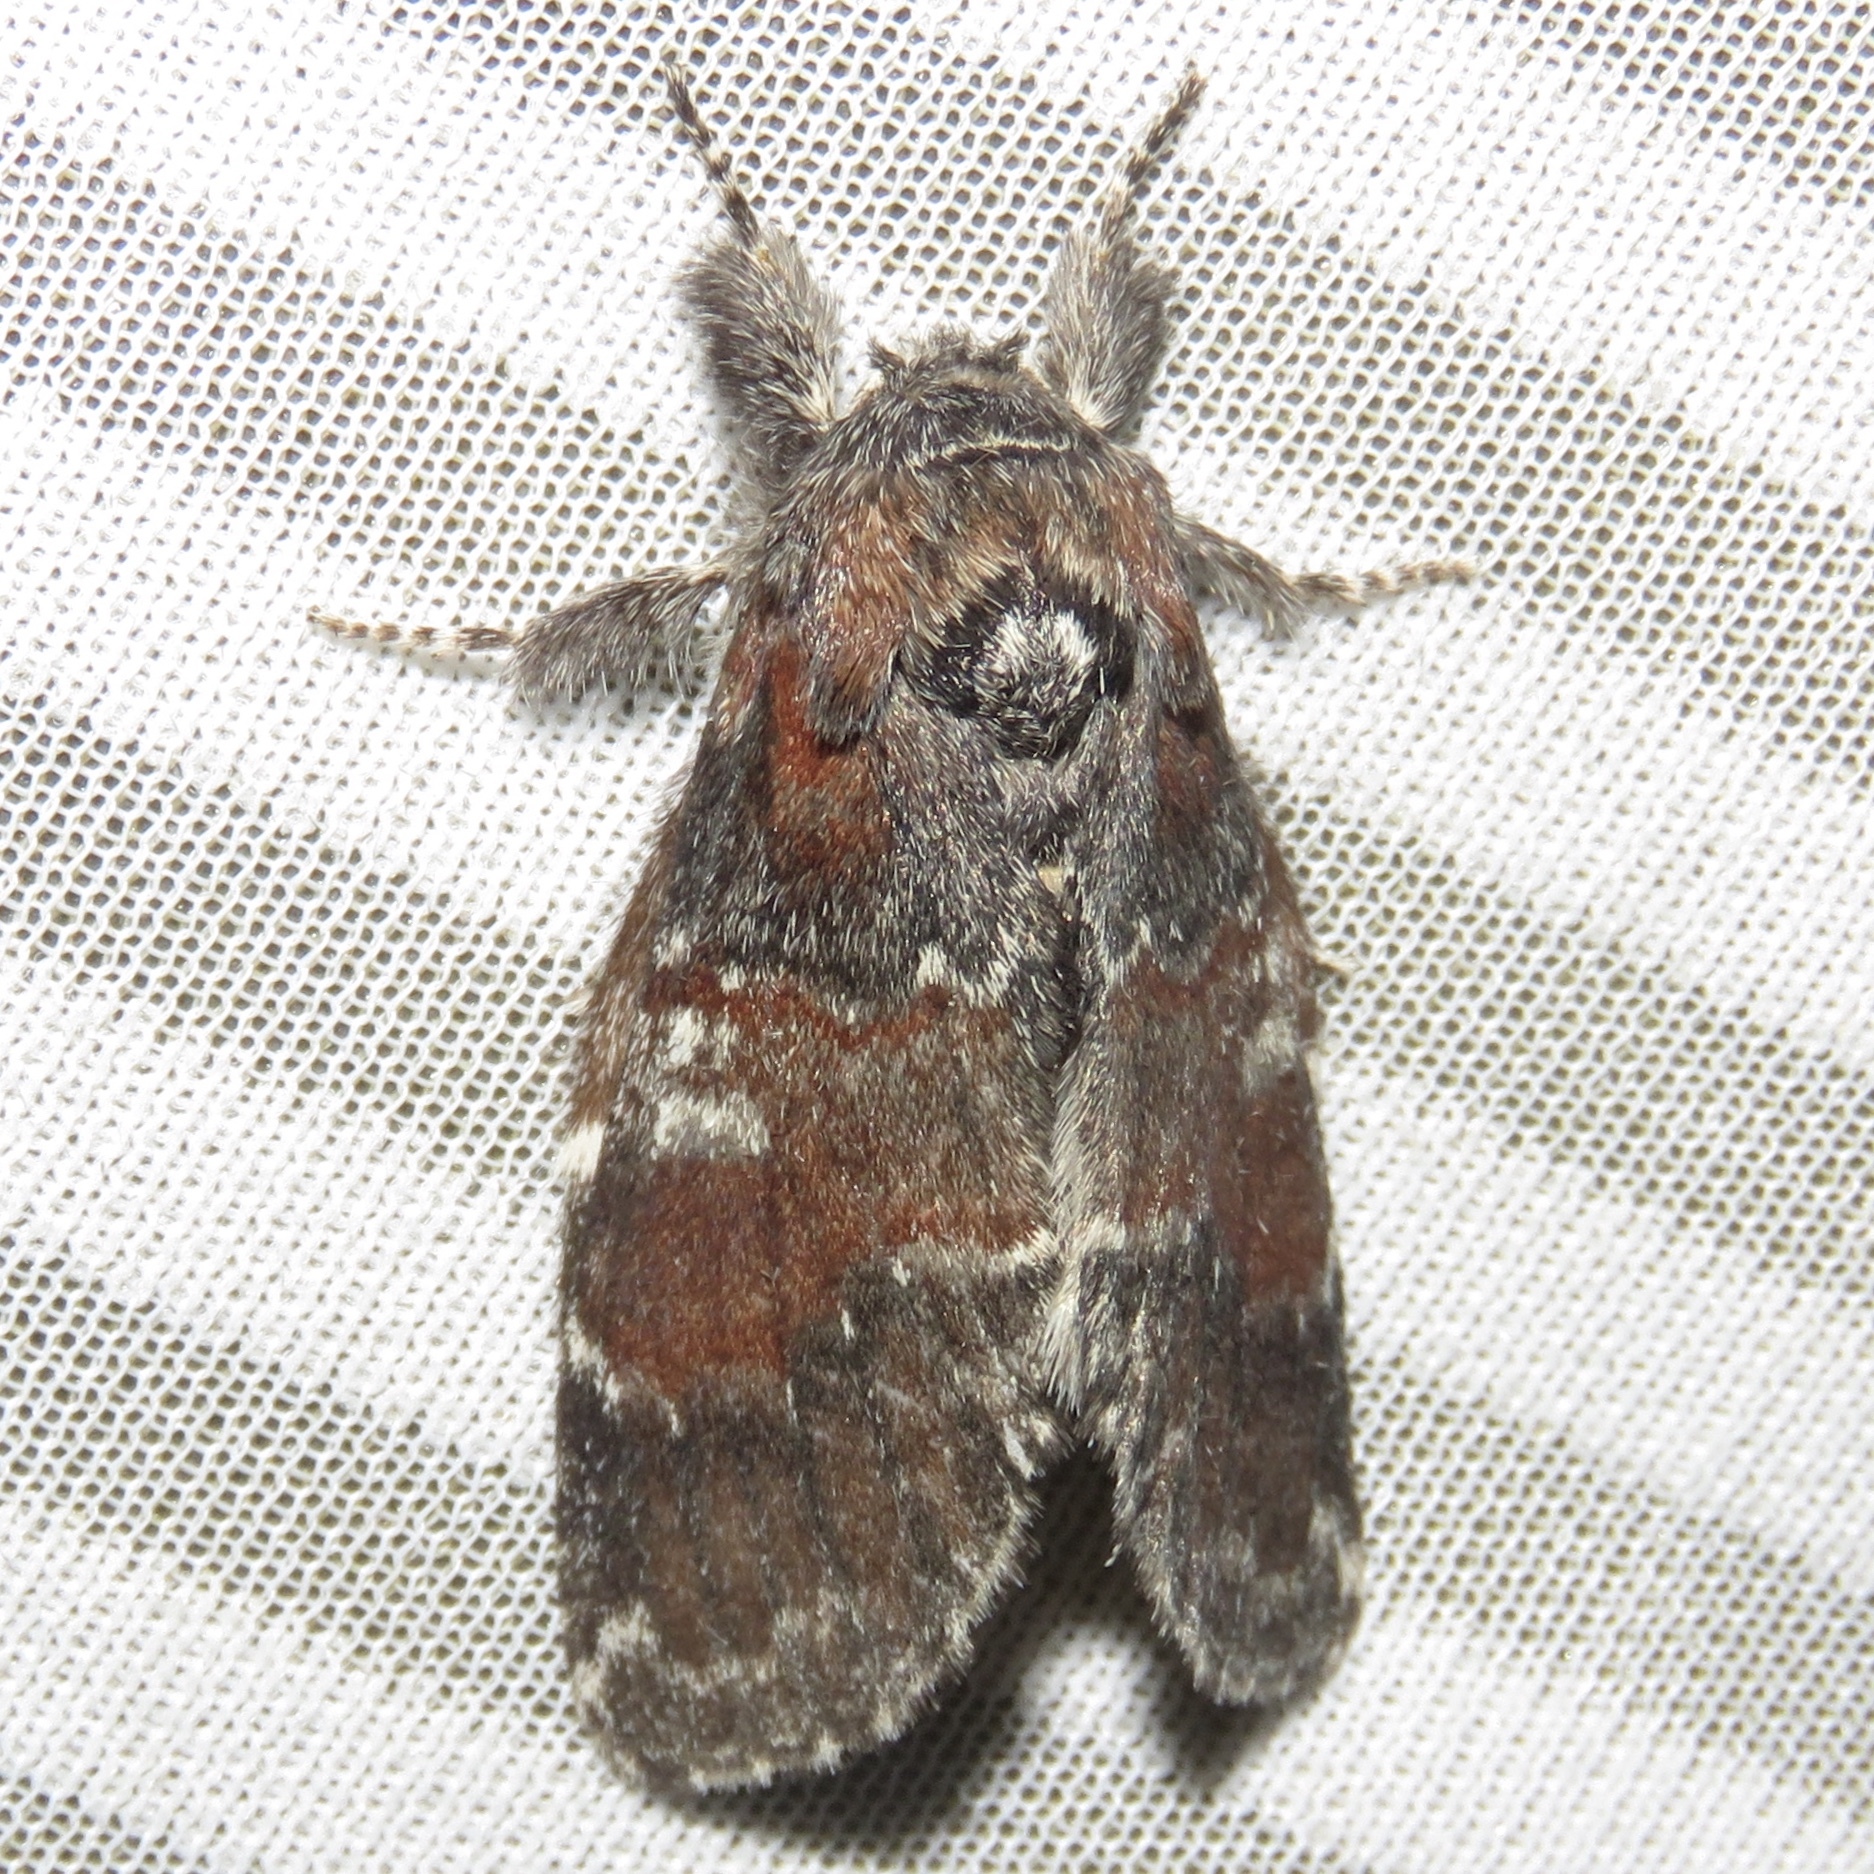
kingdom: Animalia
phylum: Arthropoda
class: Insecta
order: Lepidoptera
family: Notodontidae
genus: Peridea
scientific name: Peridea ferruginea
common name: Chocolate prominent
